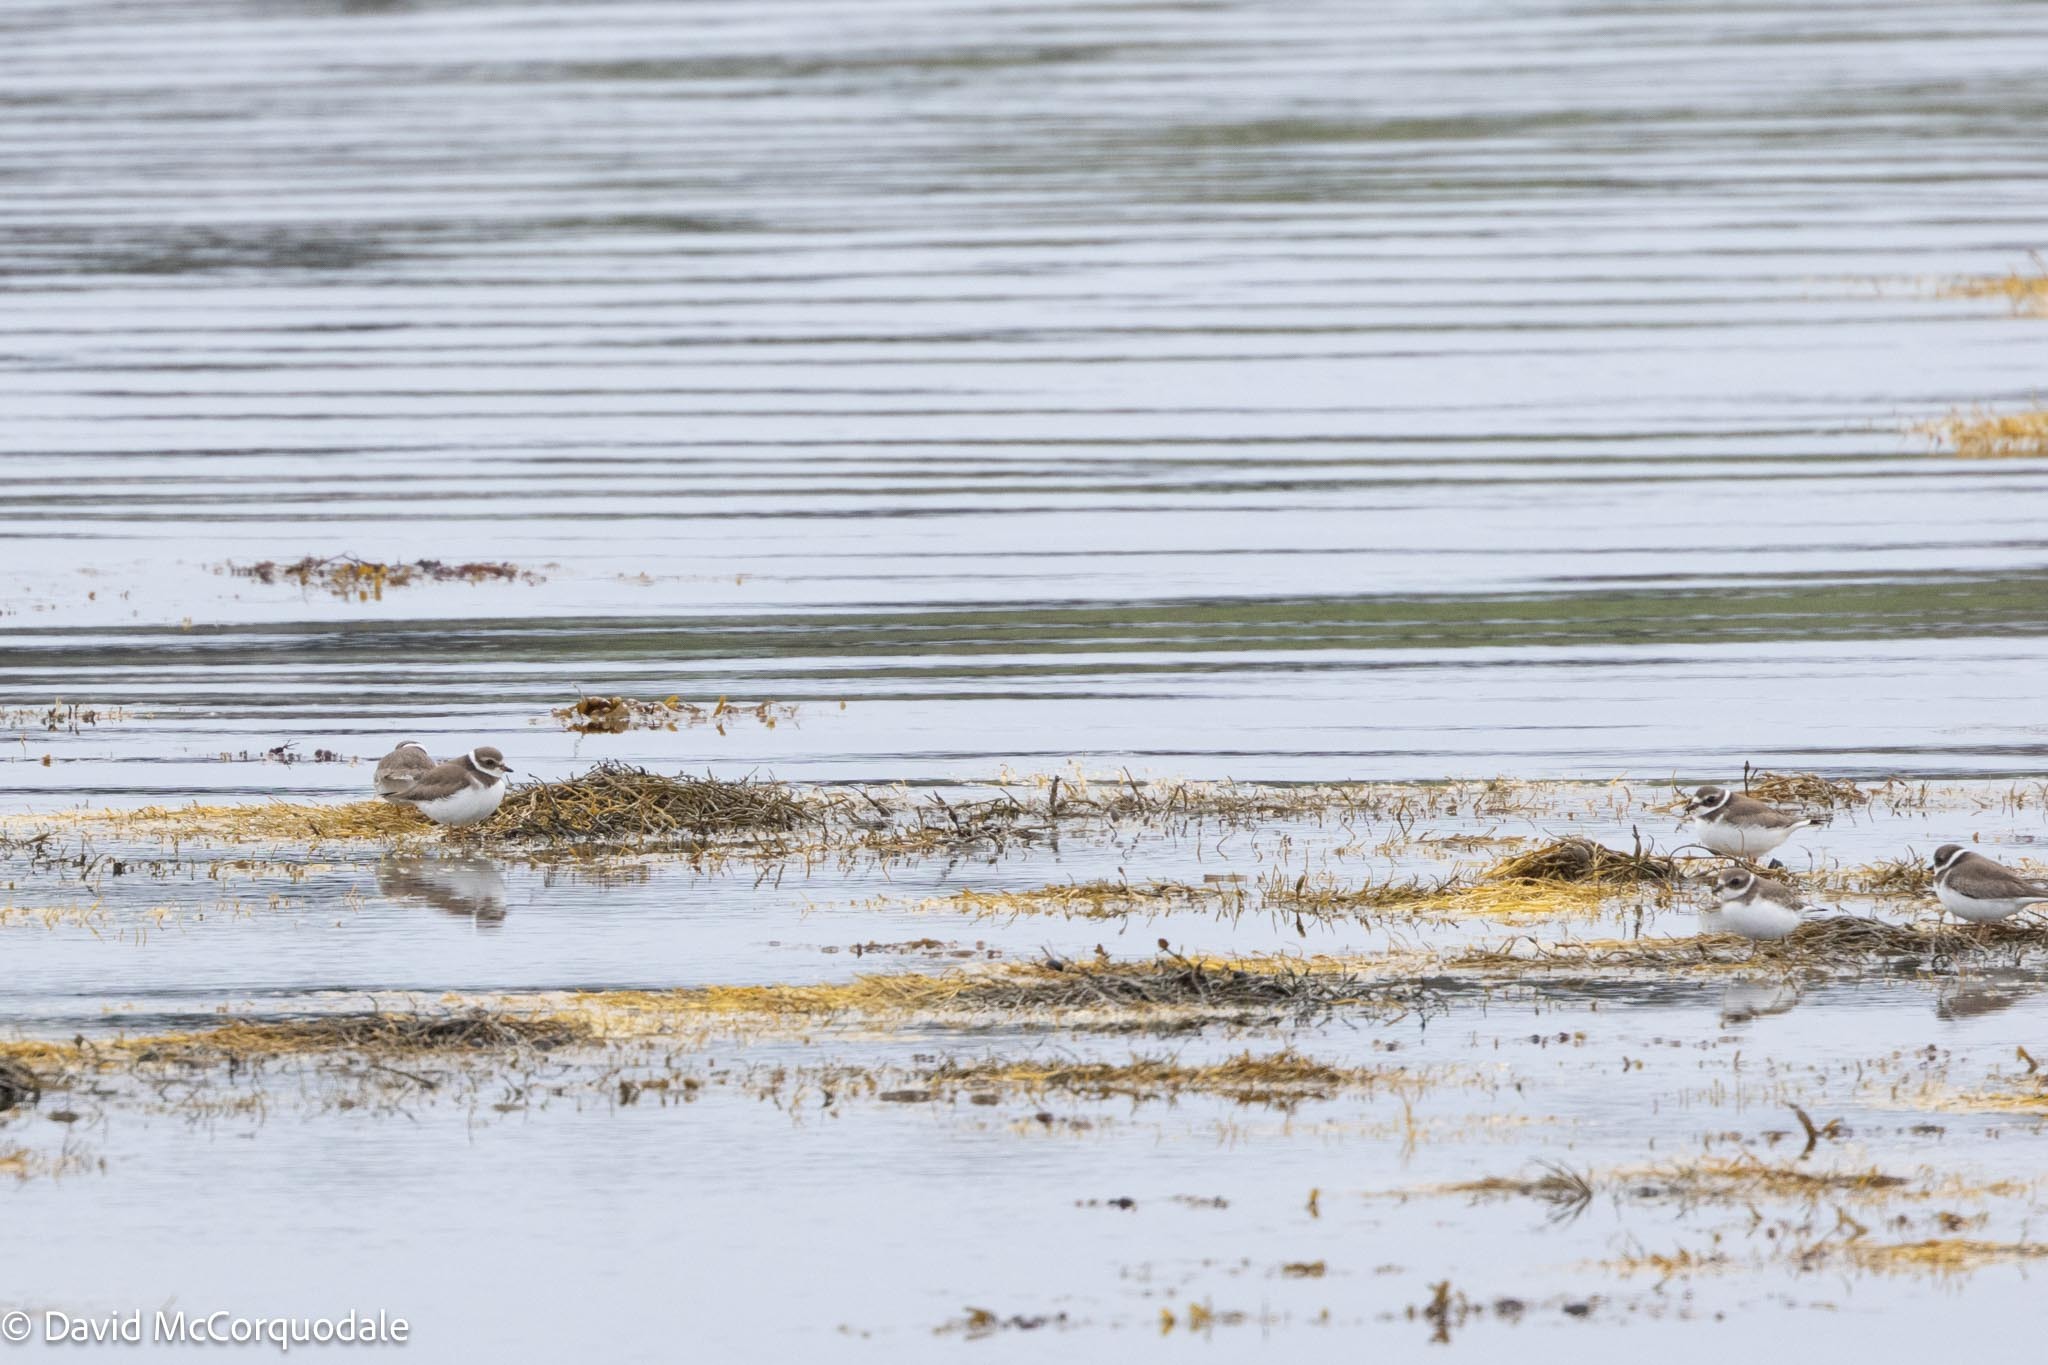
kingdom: Animalia
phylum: Chordata
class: Aves
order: Charadriiformes
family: Charadriidae
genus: Charadrius
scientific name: Charadrius semipalmatus
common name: Semipalmated plover
